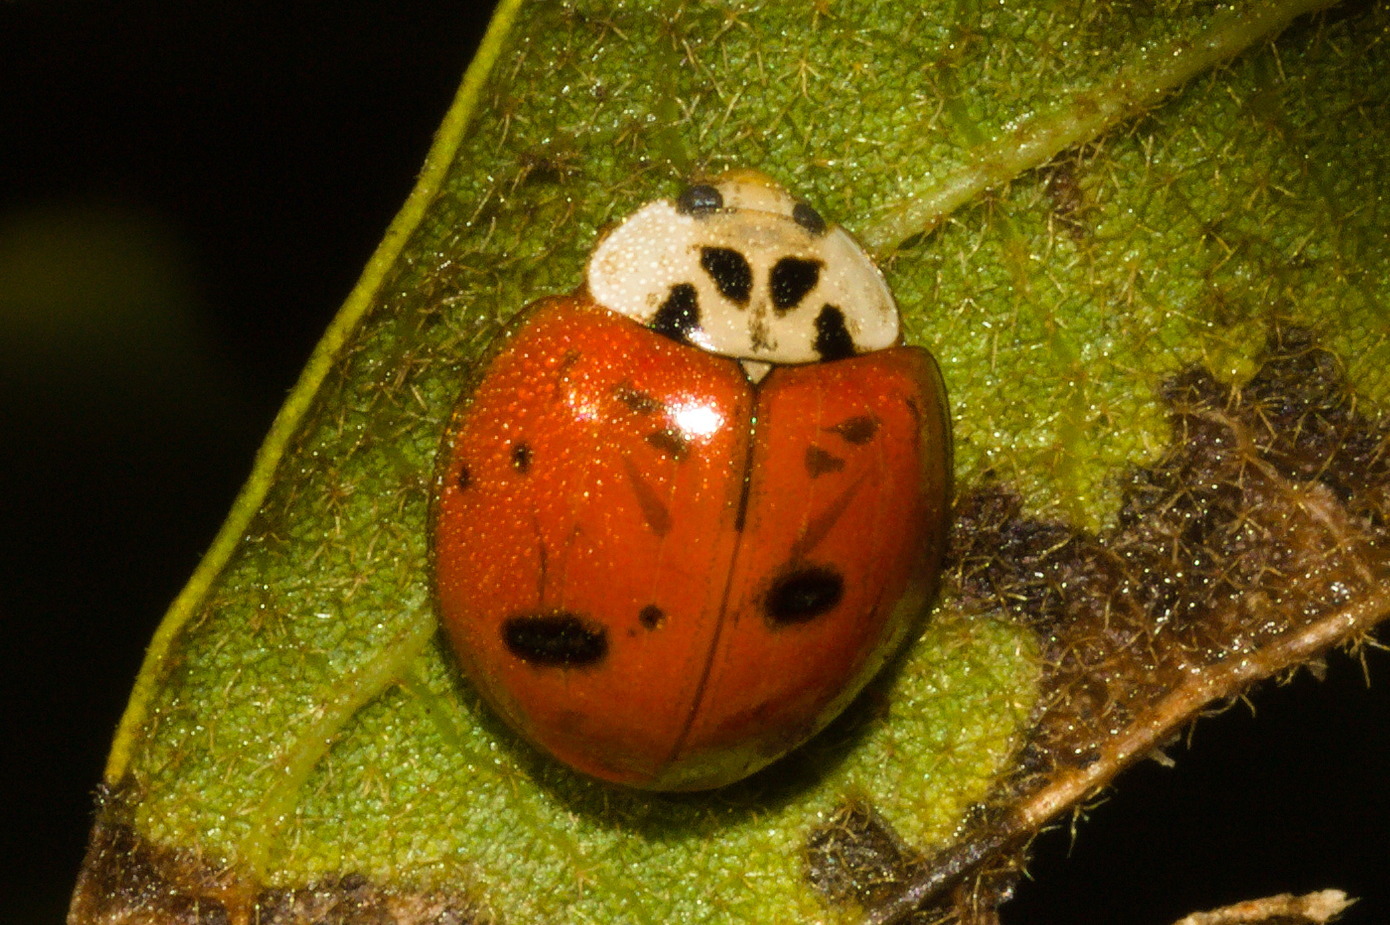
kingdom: Animalia
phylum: Arthropoda
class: Insecta
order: Coleoptera
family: Coccinellidae
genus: Harmonia
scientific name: Harmonia axyridis
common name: Harlequin ladybird
